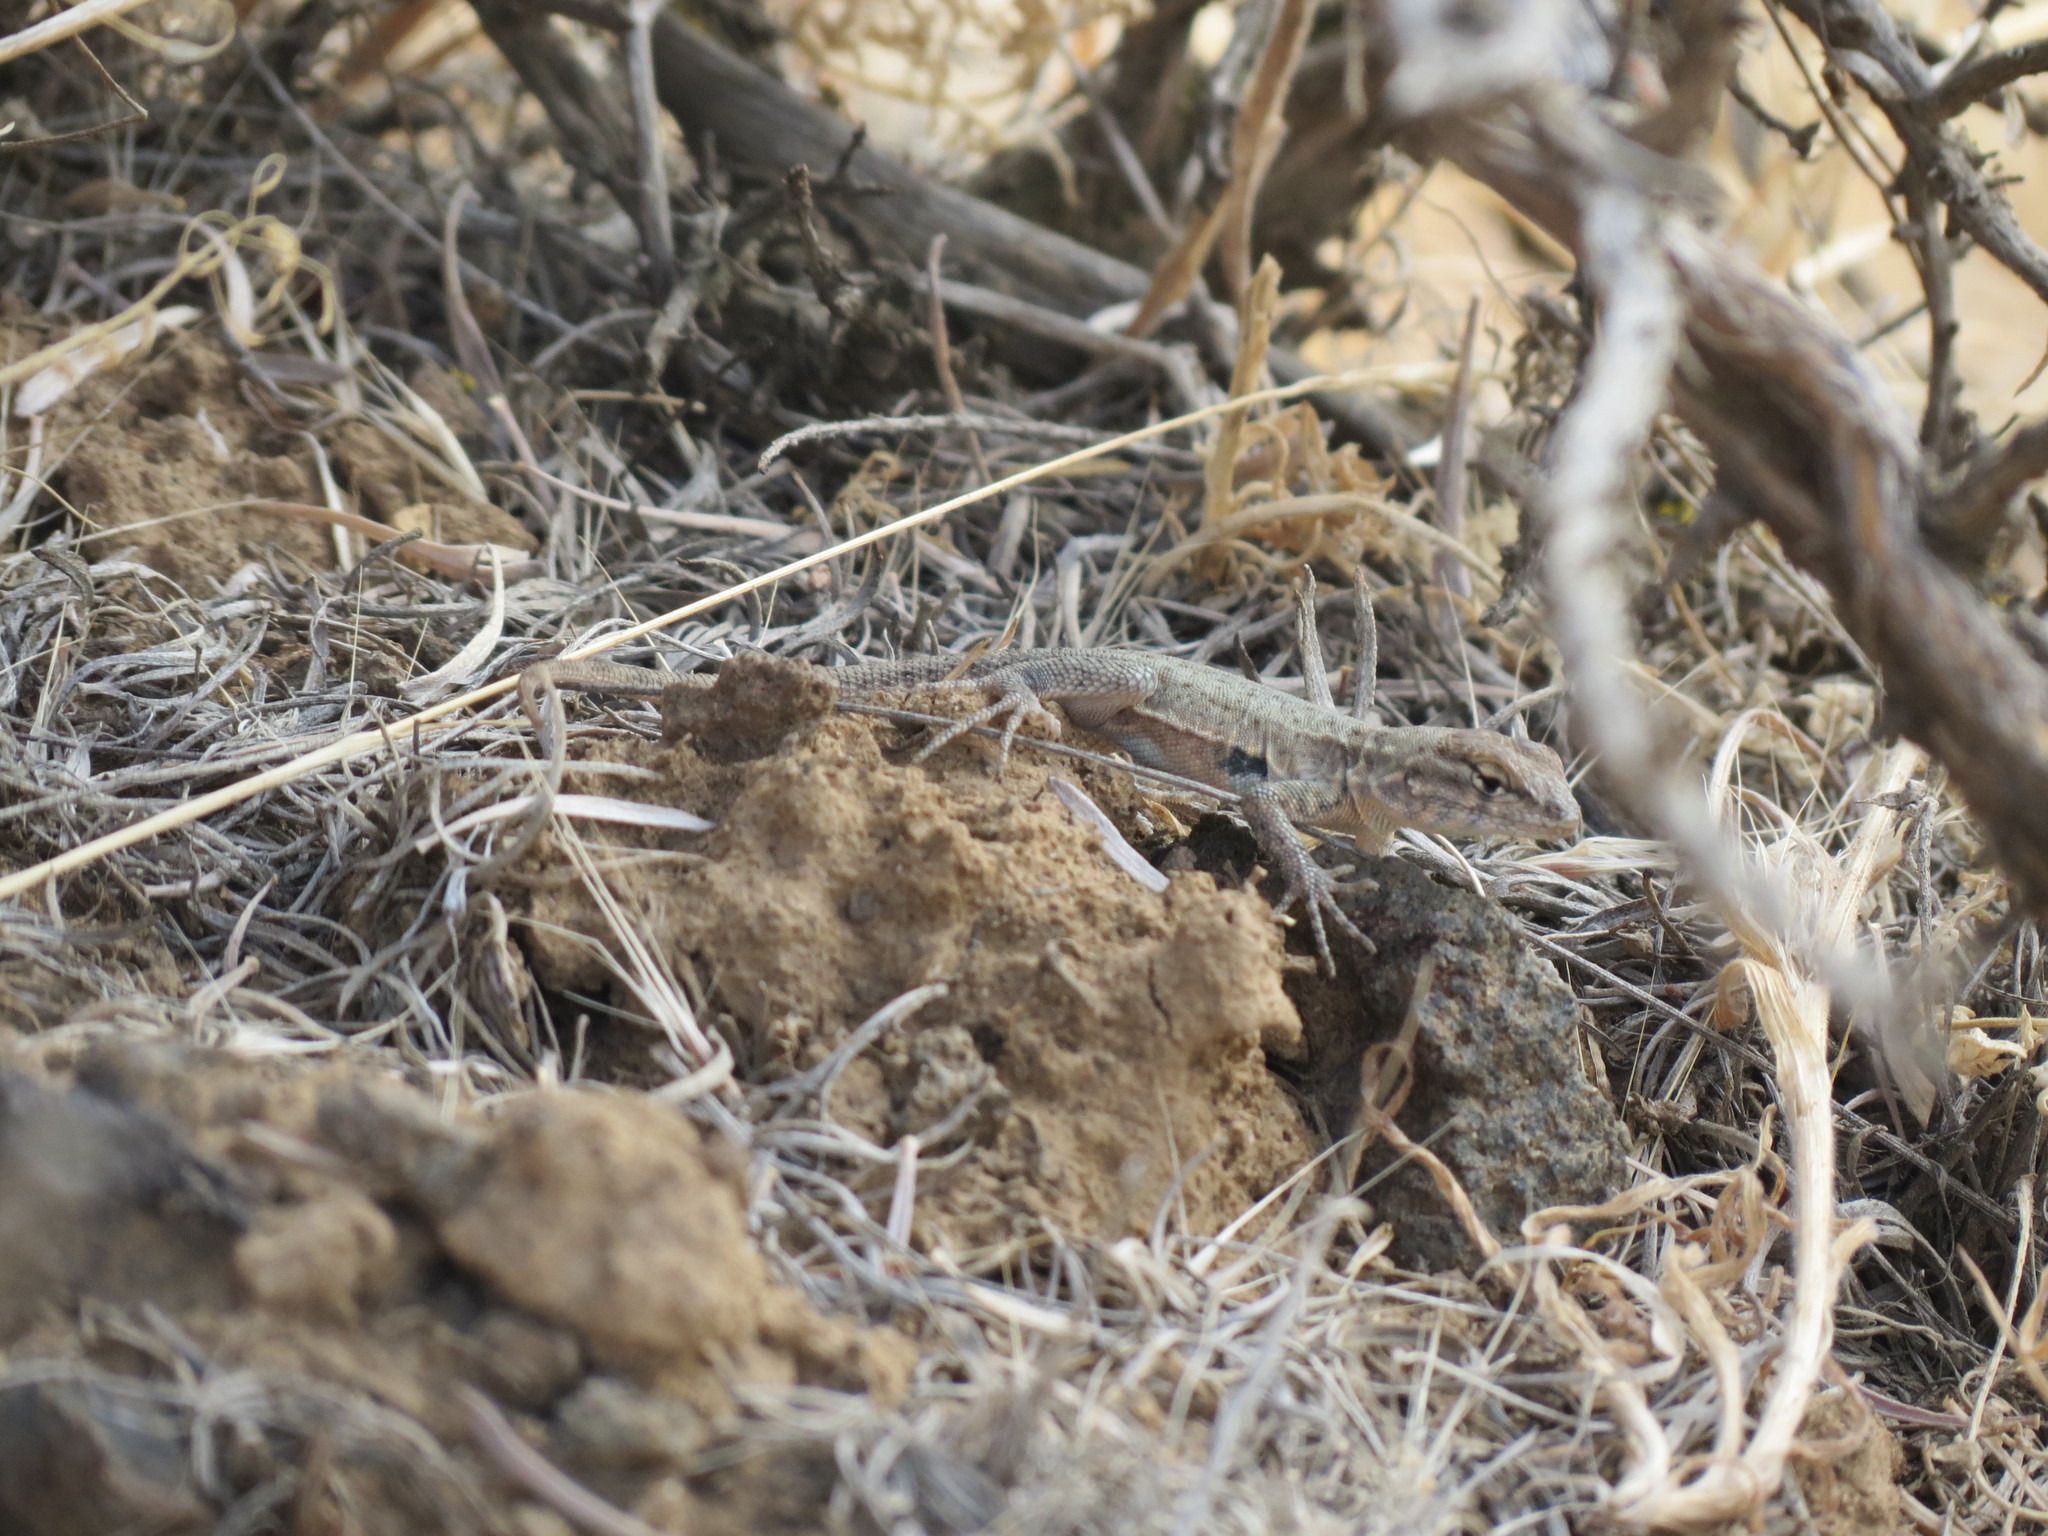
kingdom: Animalia
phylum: Chordata
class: Squamata
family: Phrynosomatidae
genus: Uta
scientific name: Uta stansburiana
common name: Side-blotched lizard
